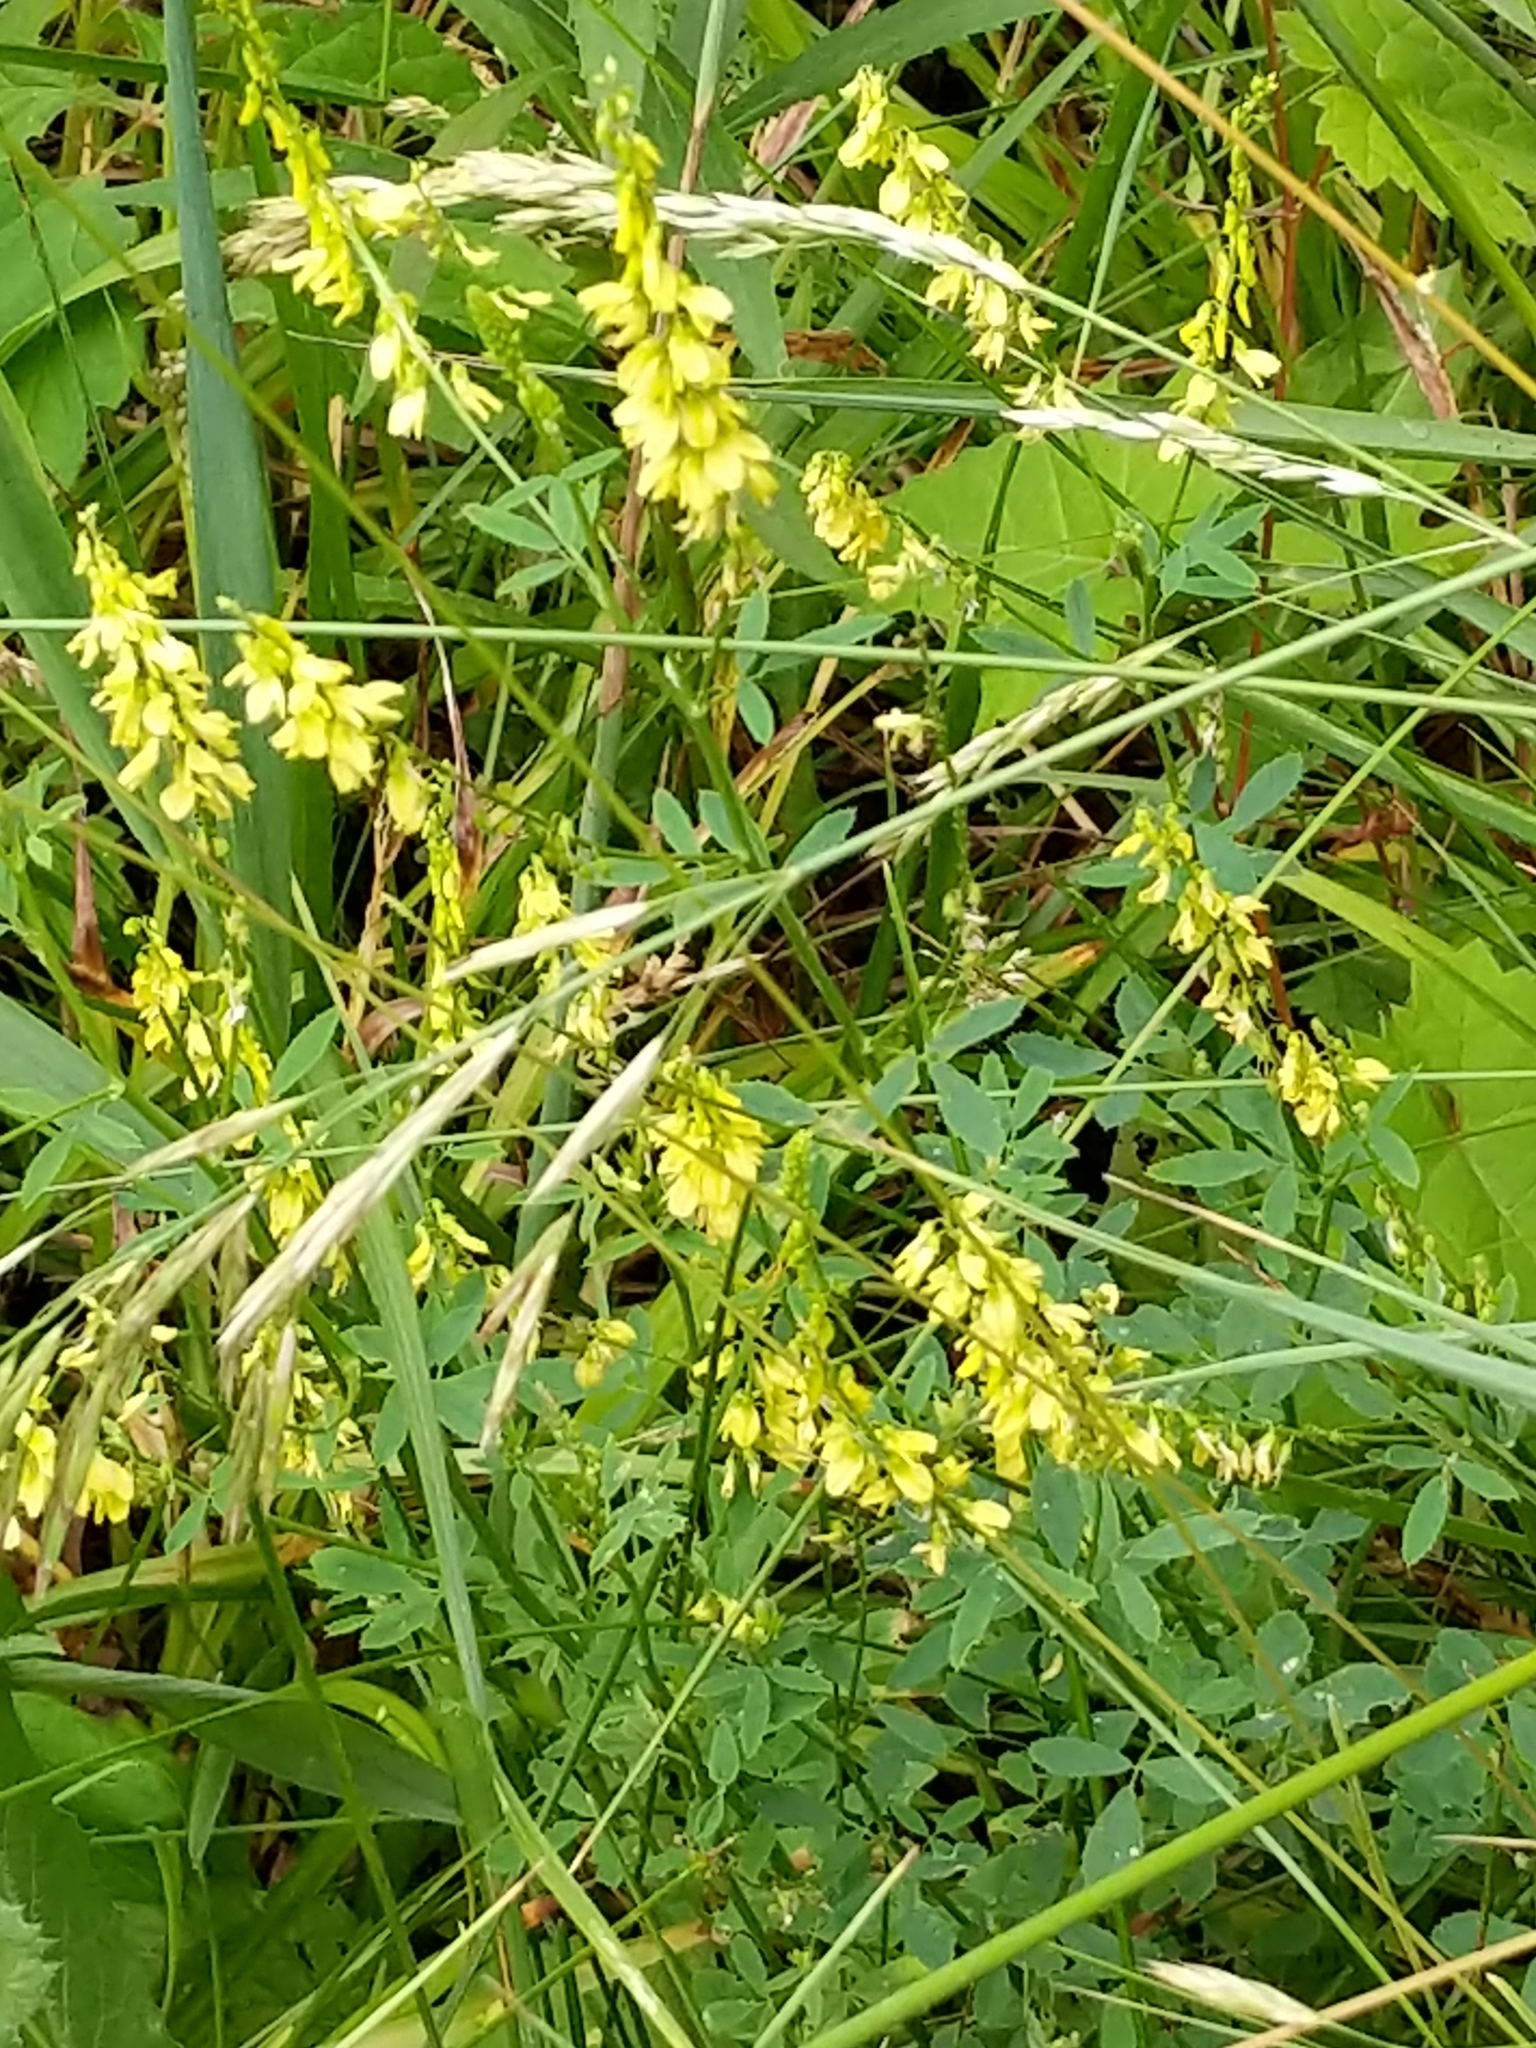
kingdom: Plantae
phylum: Tracheophyta
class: Magnoliopsida
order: Fabales
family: Fabaceae
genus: Melilotus
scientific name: Melilotus officinalis
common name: Sweetclover
